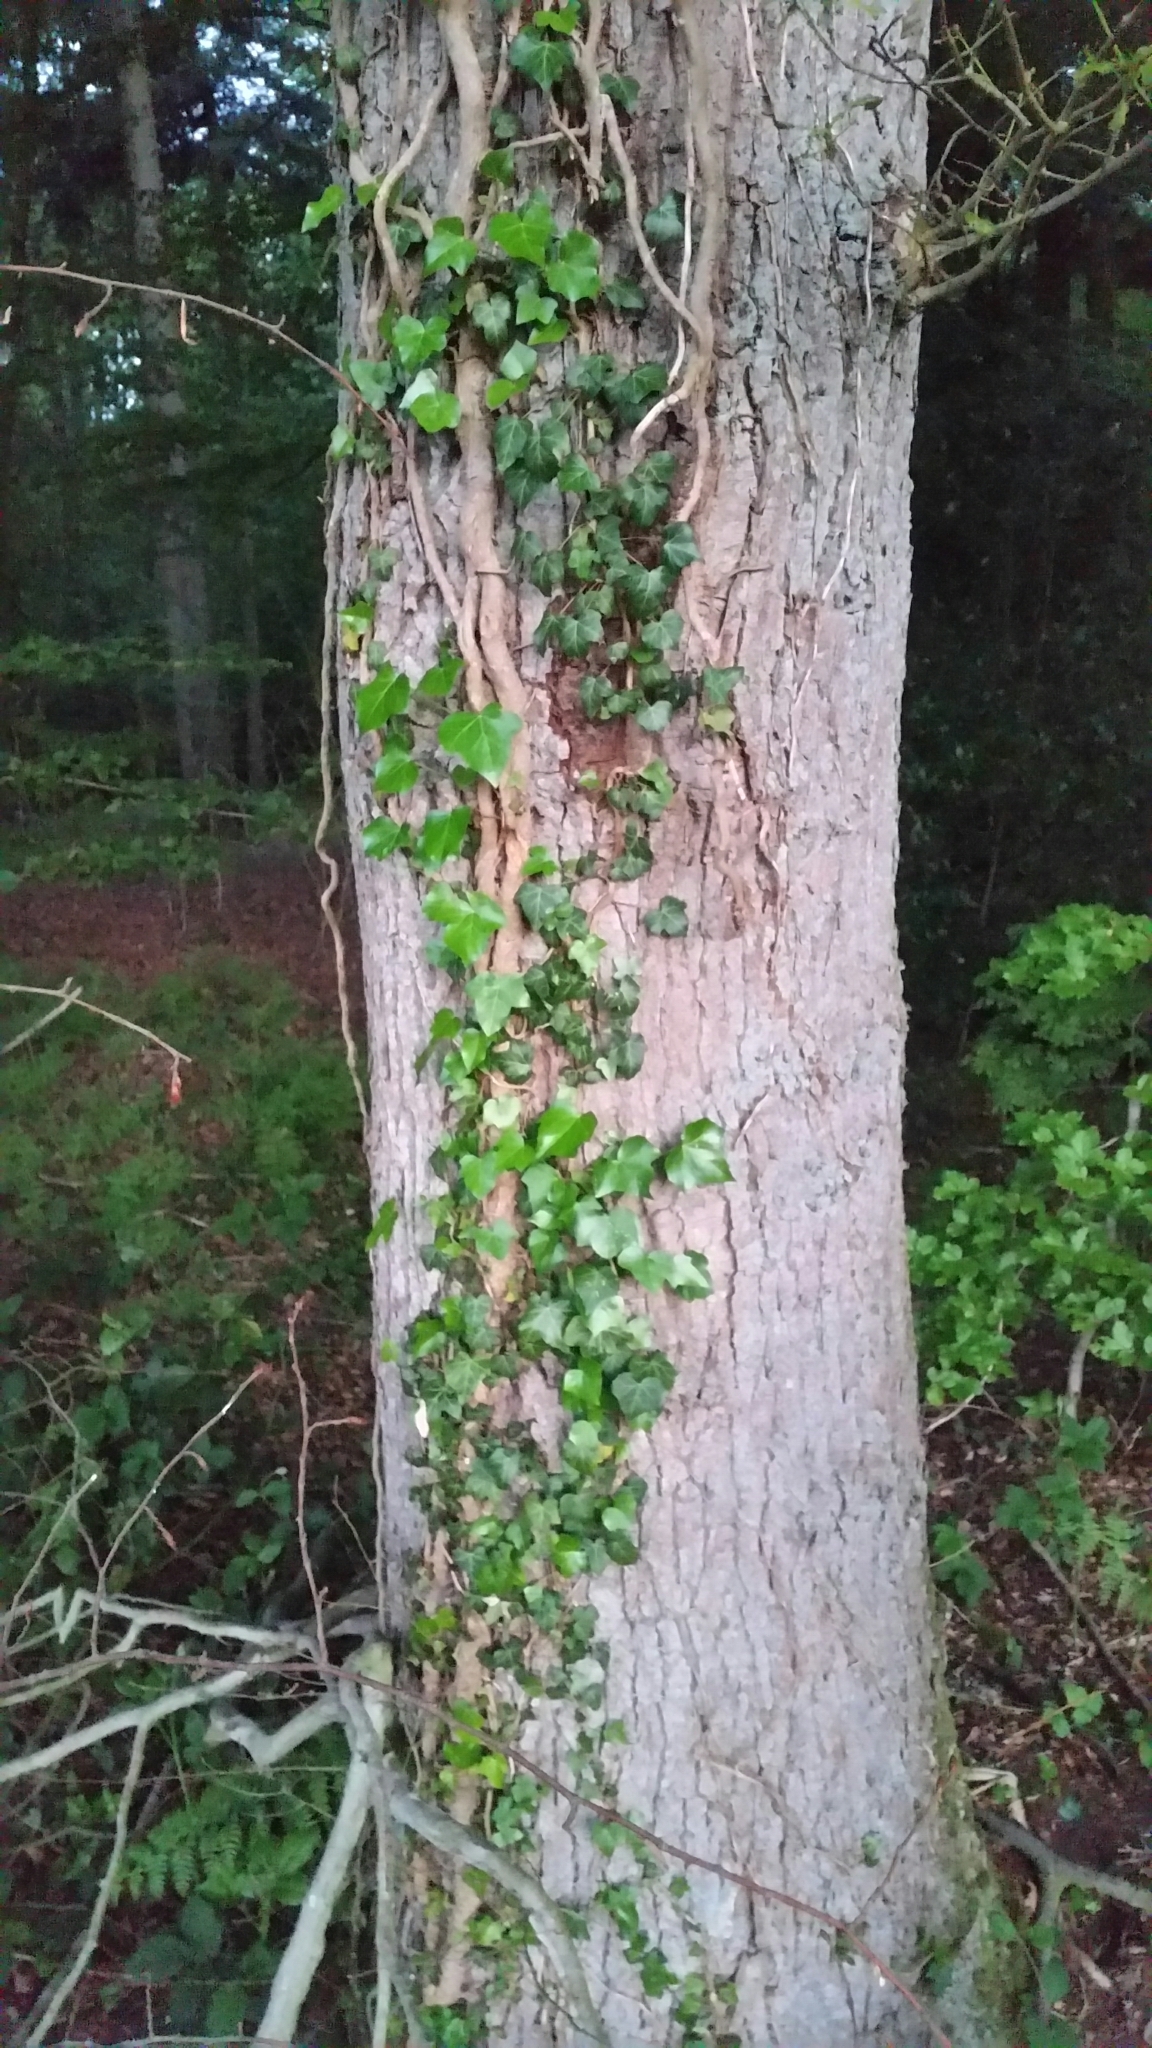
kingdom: Plantae
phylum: Tracheophyta
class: Magnoliopsida
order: Apiales
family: Araliaceae
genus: Hedera
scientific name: Hedera helix
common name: Ivy
